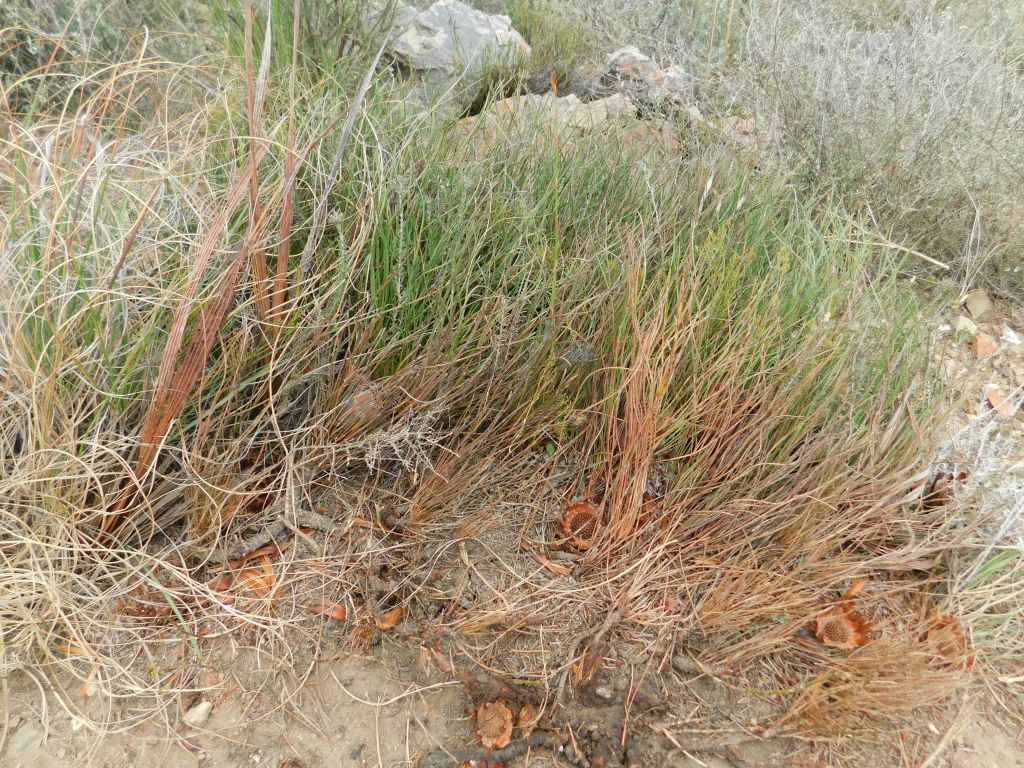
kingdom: Plantae
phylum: Tracheophyta
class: Magnoliopsida
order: Proteales
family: Proteaceae
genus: Protea
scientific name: Protea restionifolia
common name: Reed-leaf sugarbush
